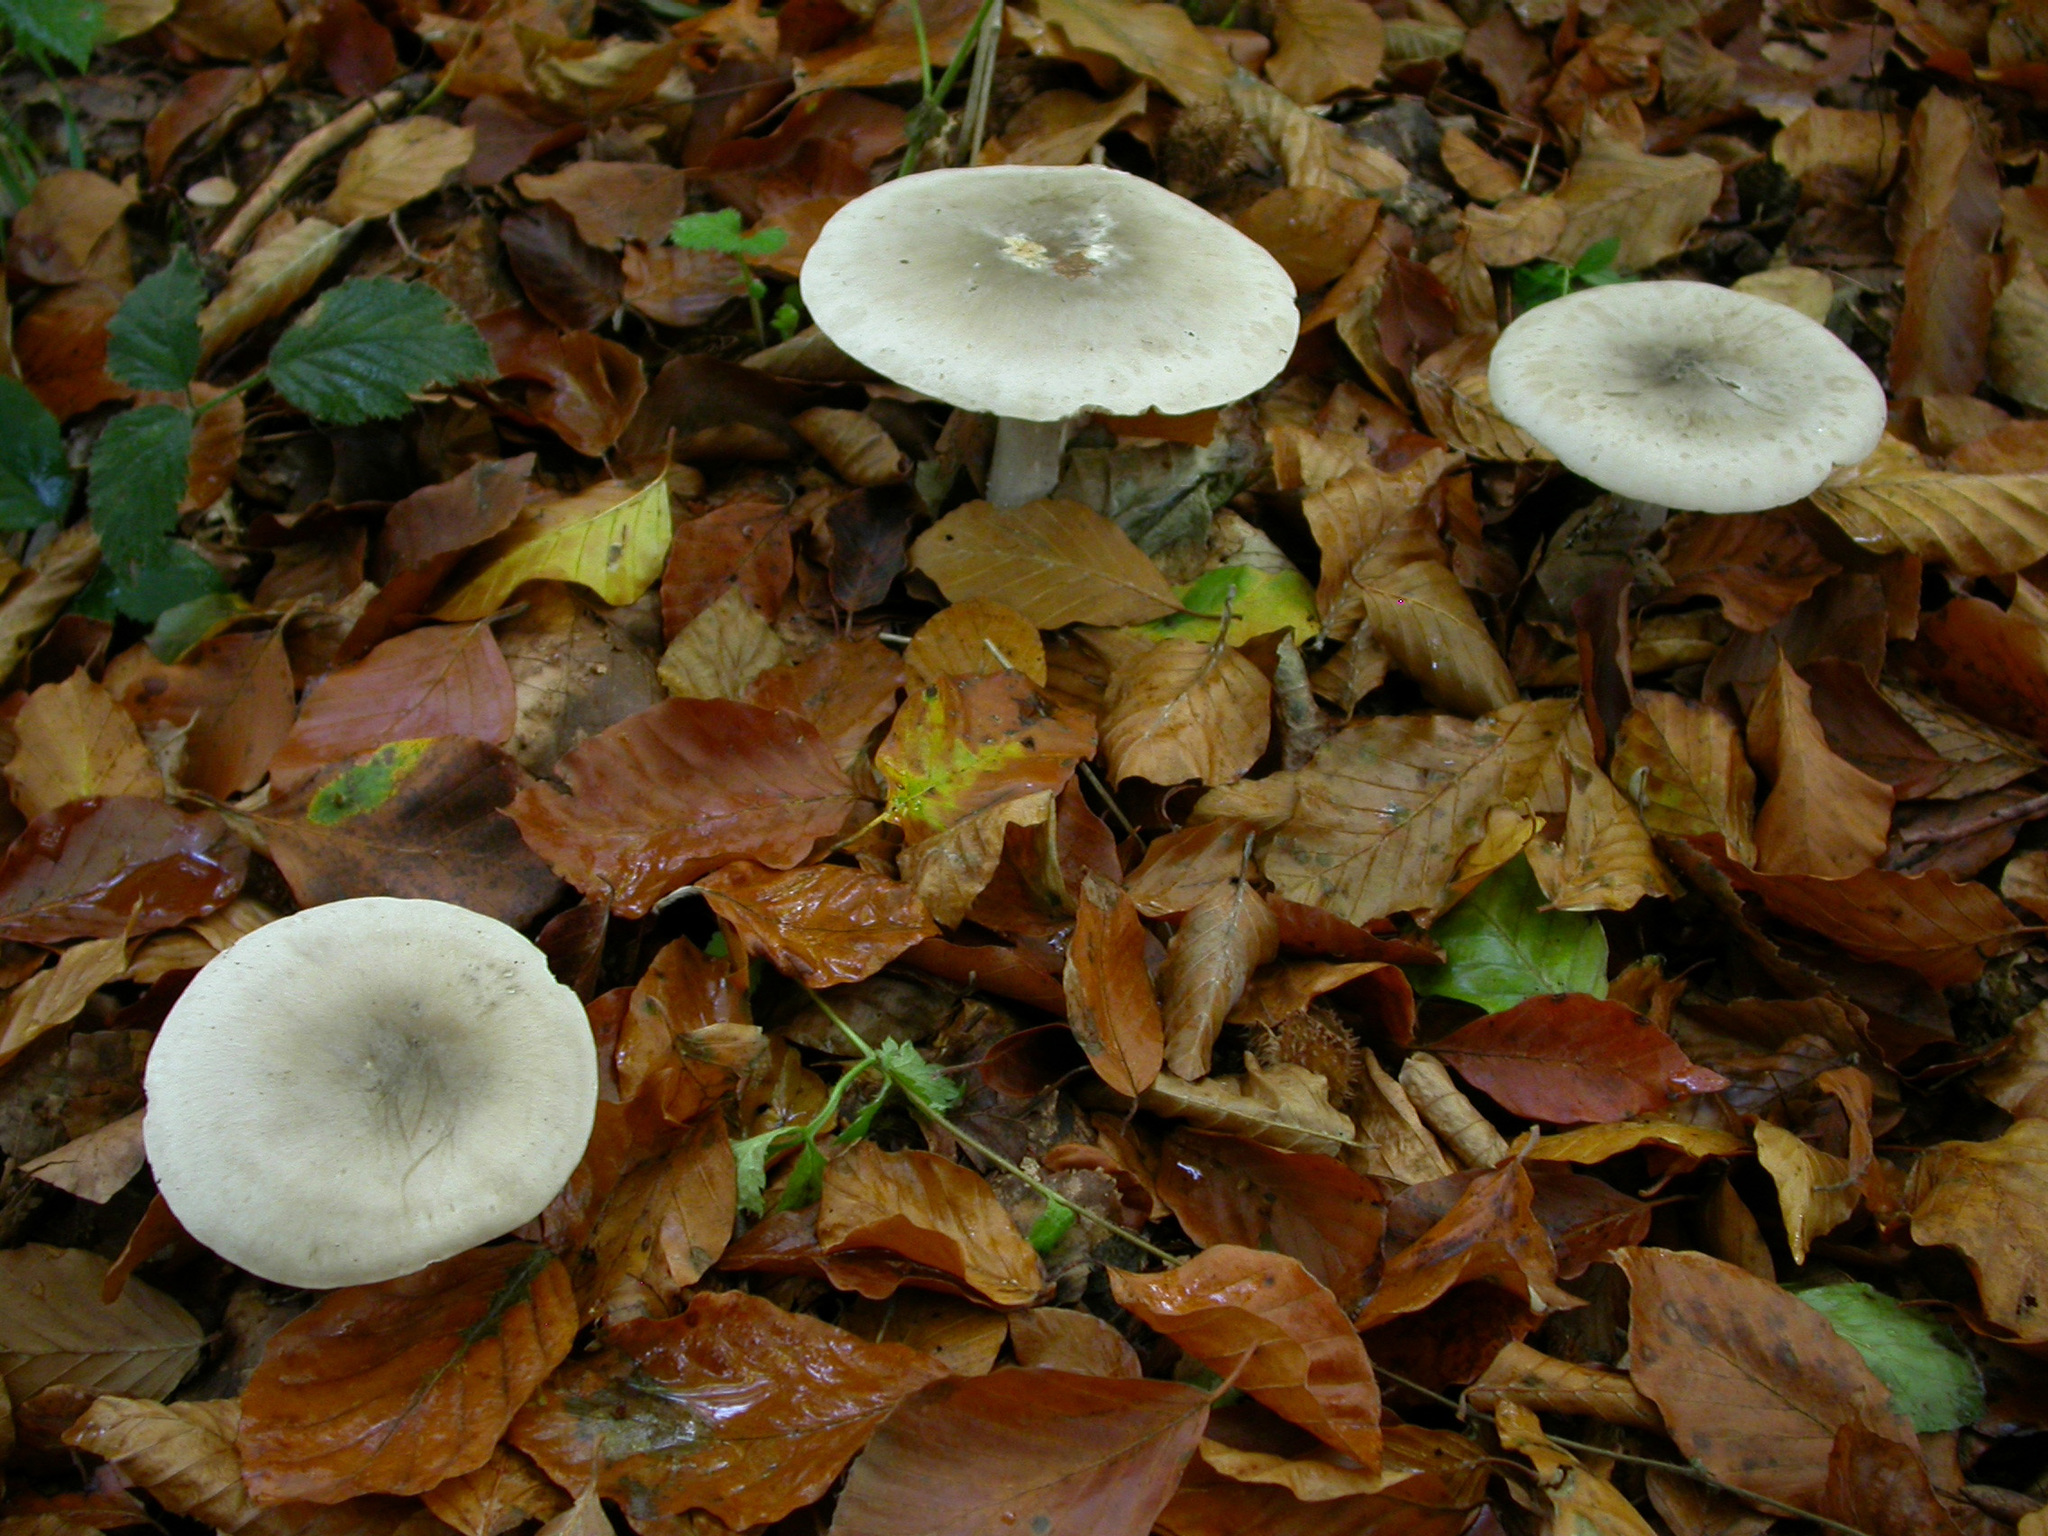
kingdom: Fungi
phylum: Basidiomycota
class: Agaricomycetes
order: Agaricales
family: Tricholomataceae
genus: Clitocybe
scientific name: Clitocybe nebularis
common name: Clouded agaric
